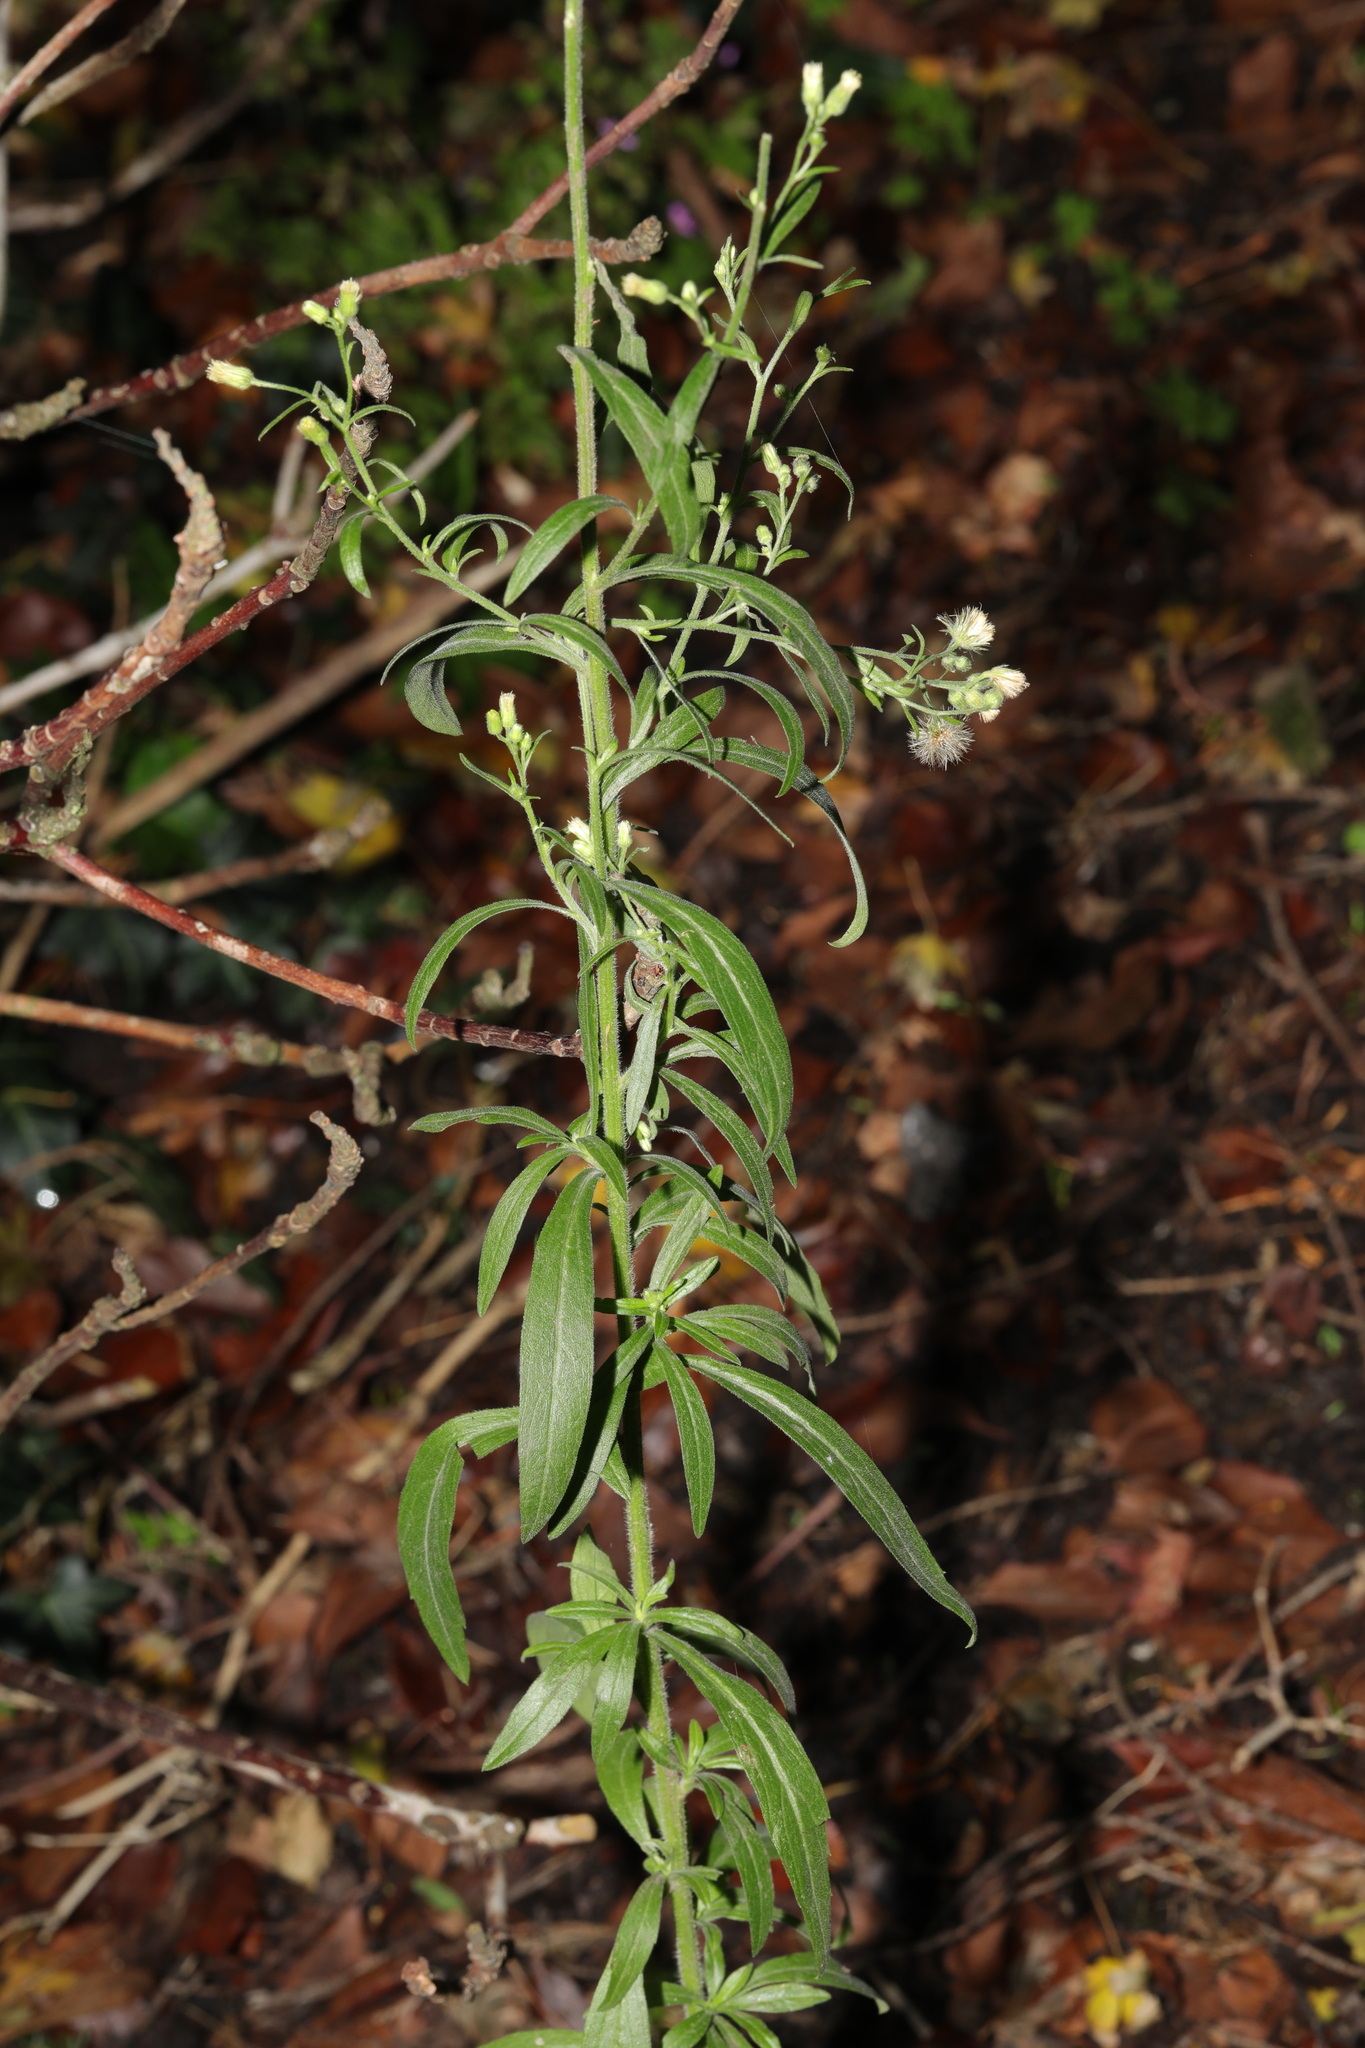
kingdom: Plantae
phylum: Tracheophyta
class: Magnoliopsida
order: Asterales
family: Asteraceae
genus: Erigeron
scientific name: Erigeron sumatrensis
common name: Daisy
